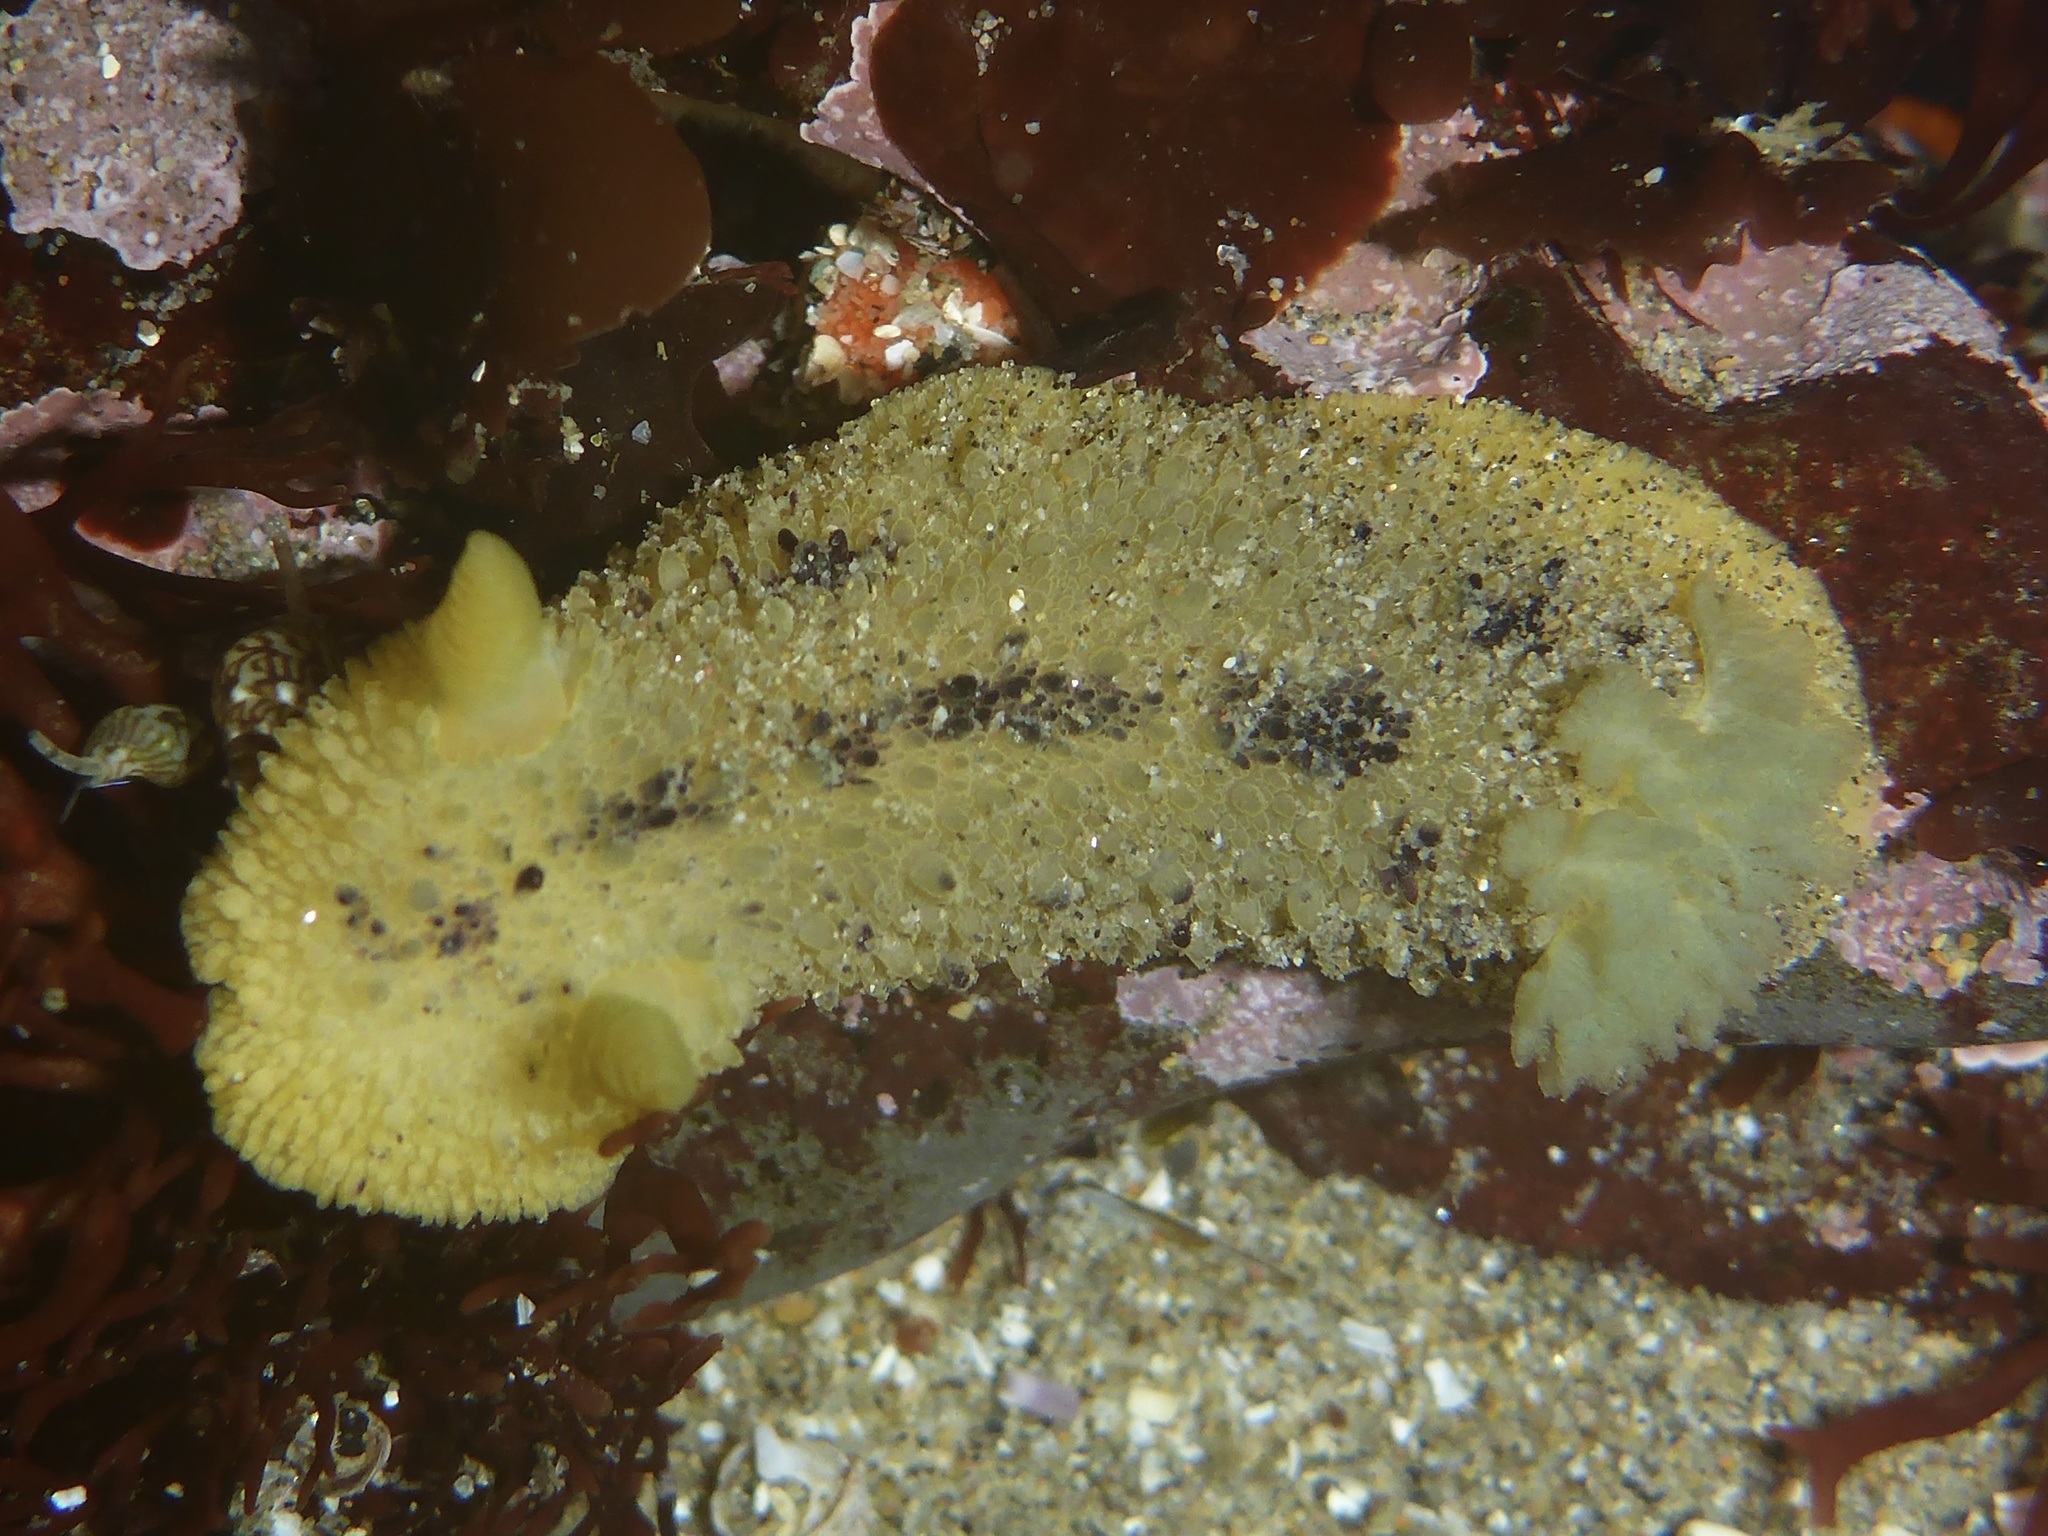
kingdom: Animalia
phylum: Mollusca
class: Gastropoda
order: Nudibranchia
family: Dorididae
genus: Doris
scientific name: Doris montereyensis
